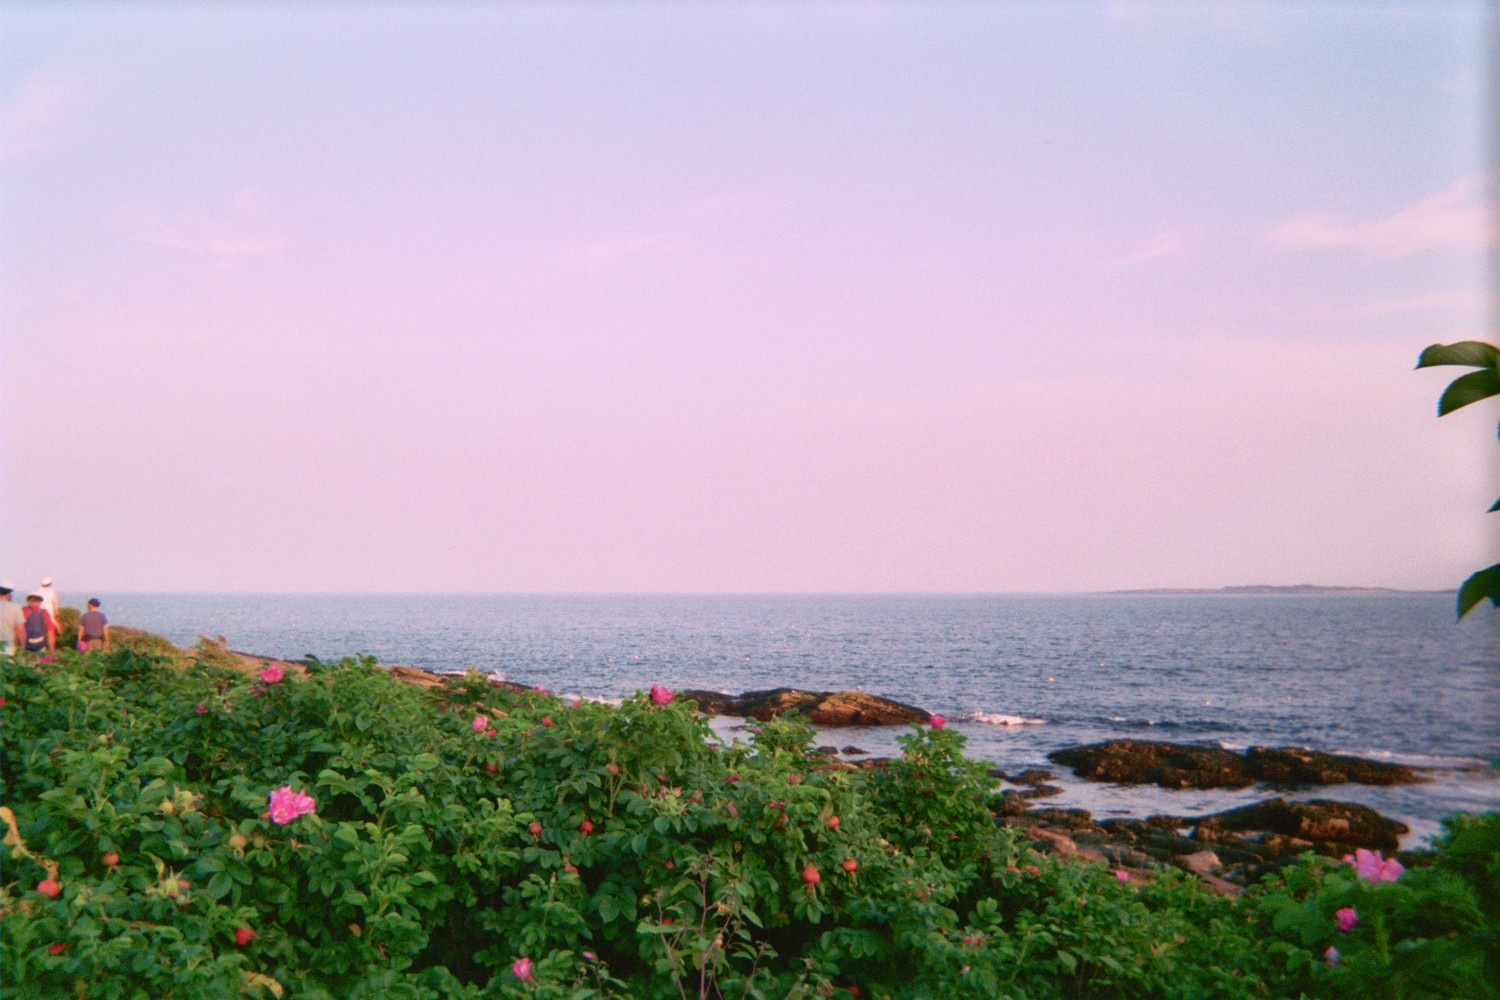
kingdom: Plantae
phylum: Tracheophyta
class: Magnoliopsida
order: Rosales
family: Rosaceae
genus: Rosa
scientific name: Rosa rugosa
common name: Japanese rose
